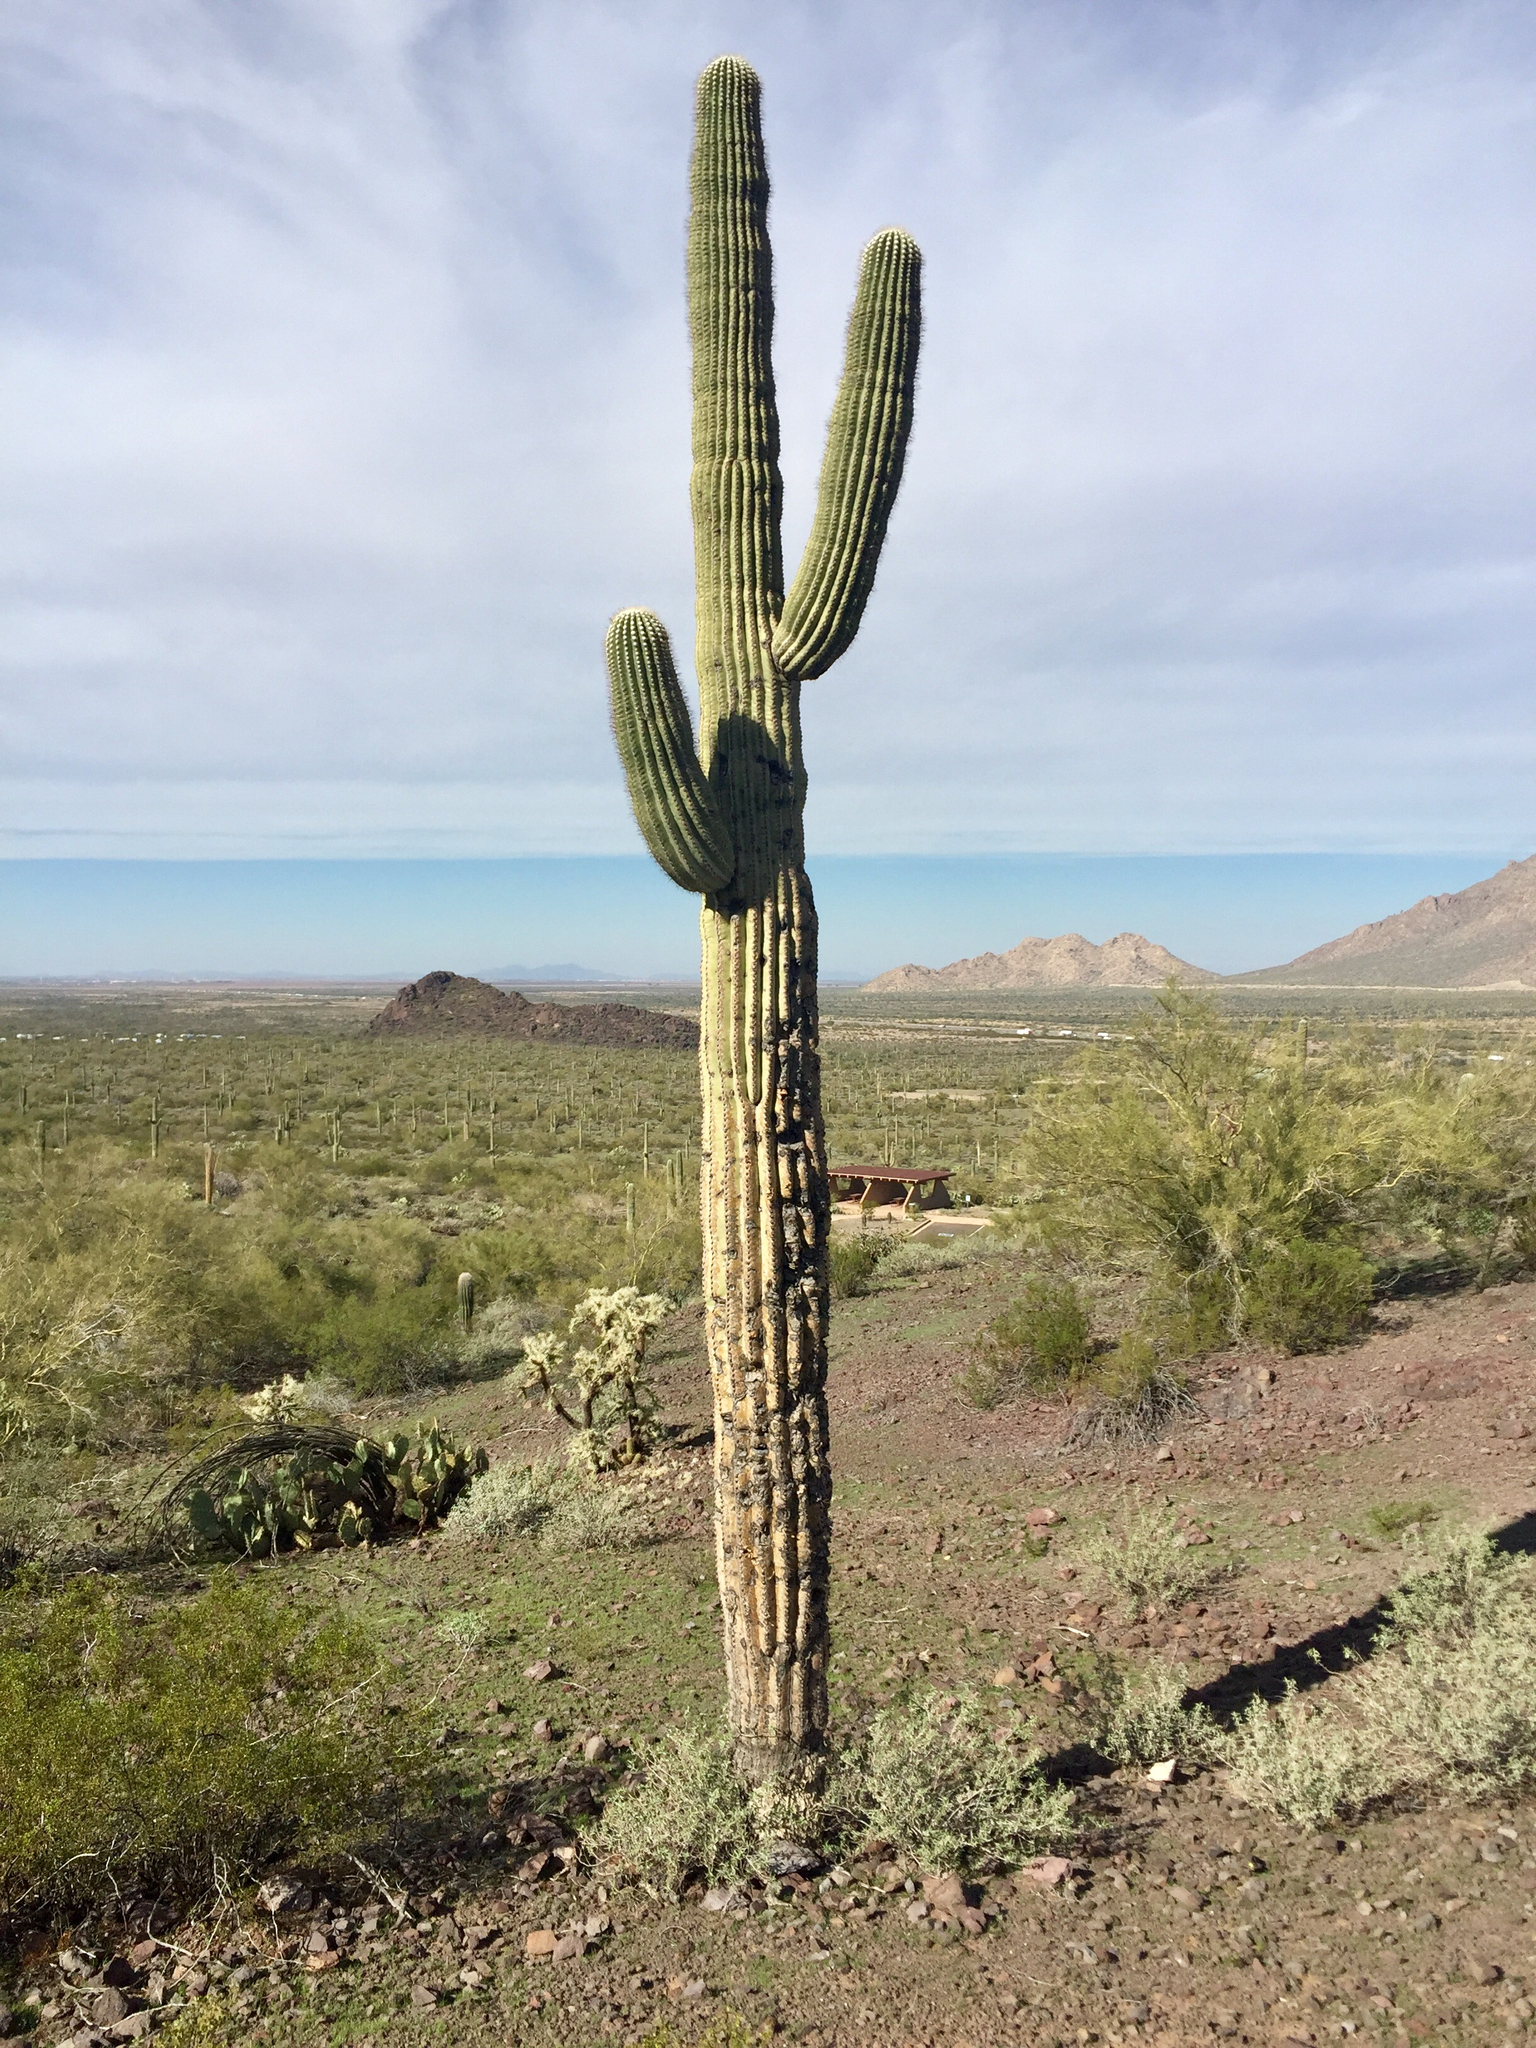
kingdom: Plantae
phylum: Tracheophyta
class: Magnoliopsida
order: Caryophyllales
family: Cactaceae
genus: Carnegiea
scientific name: Carnegiea gigantea
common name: Saguaro
